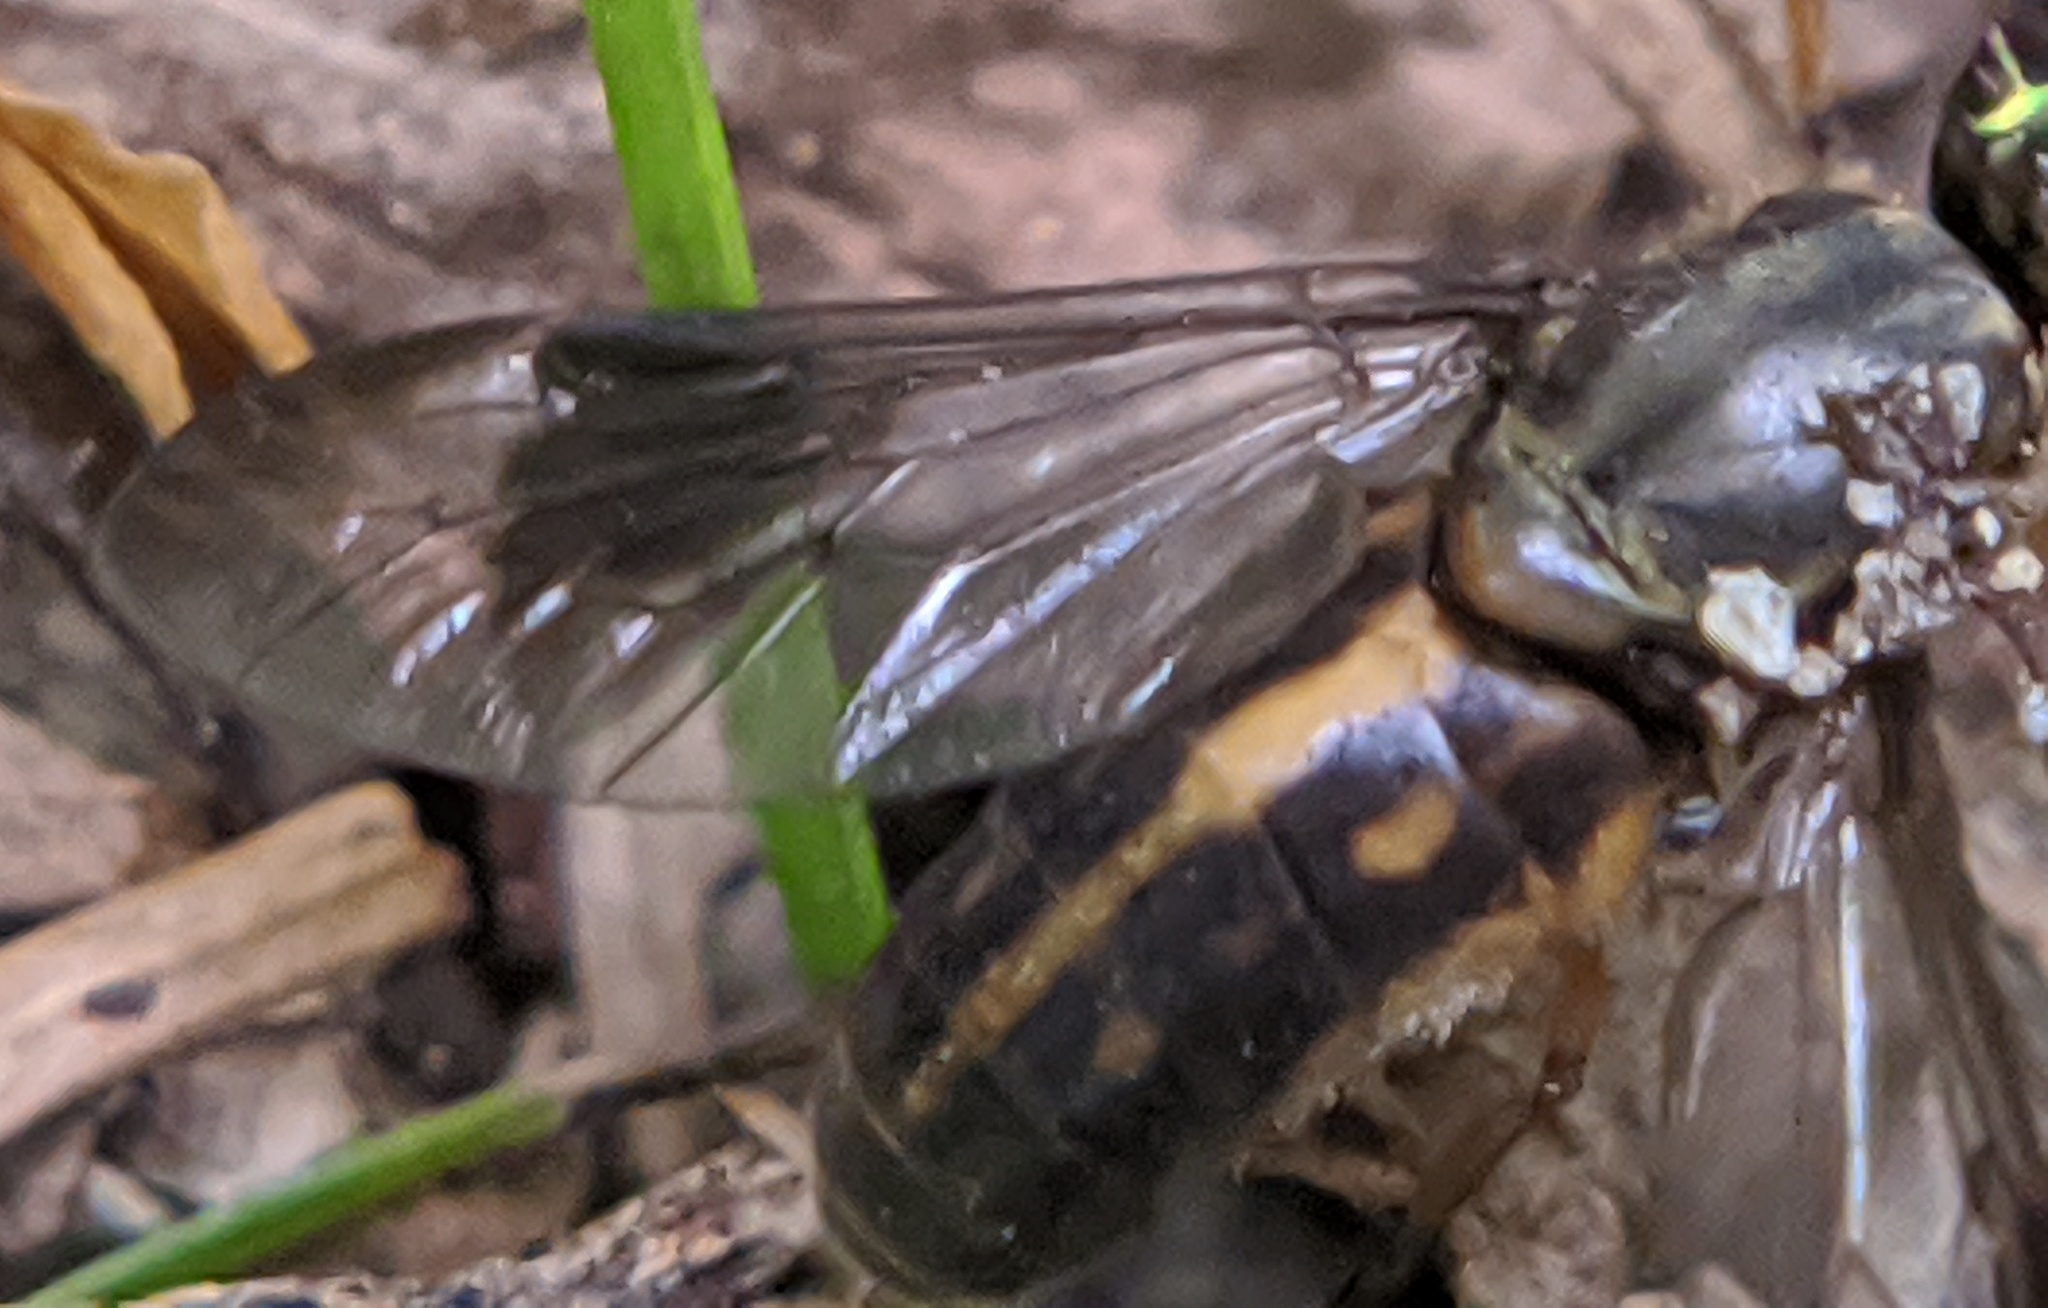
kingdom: Animalia
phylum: Arthropoda
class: Insecta
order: Diptera
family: Tabanidae
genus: Chrysops
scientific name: Chrysops univittatus
